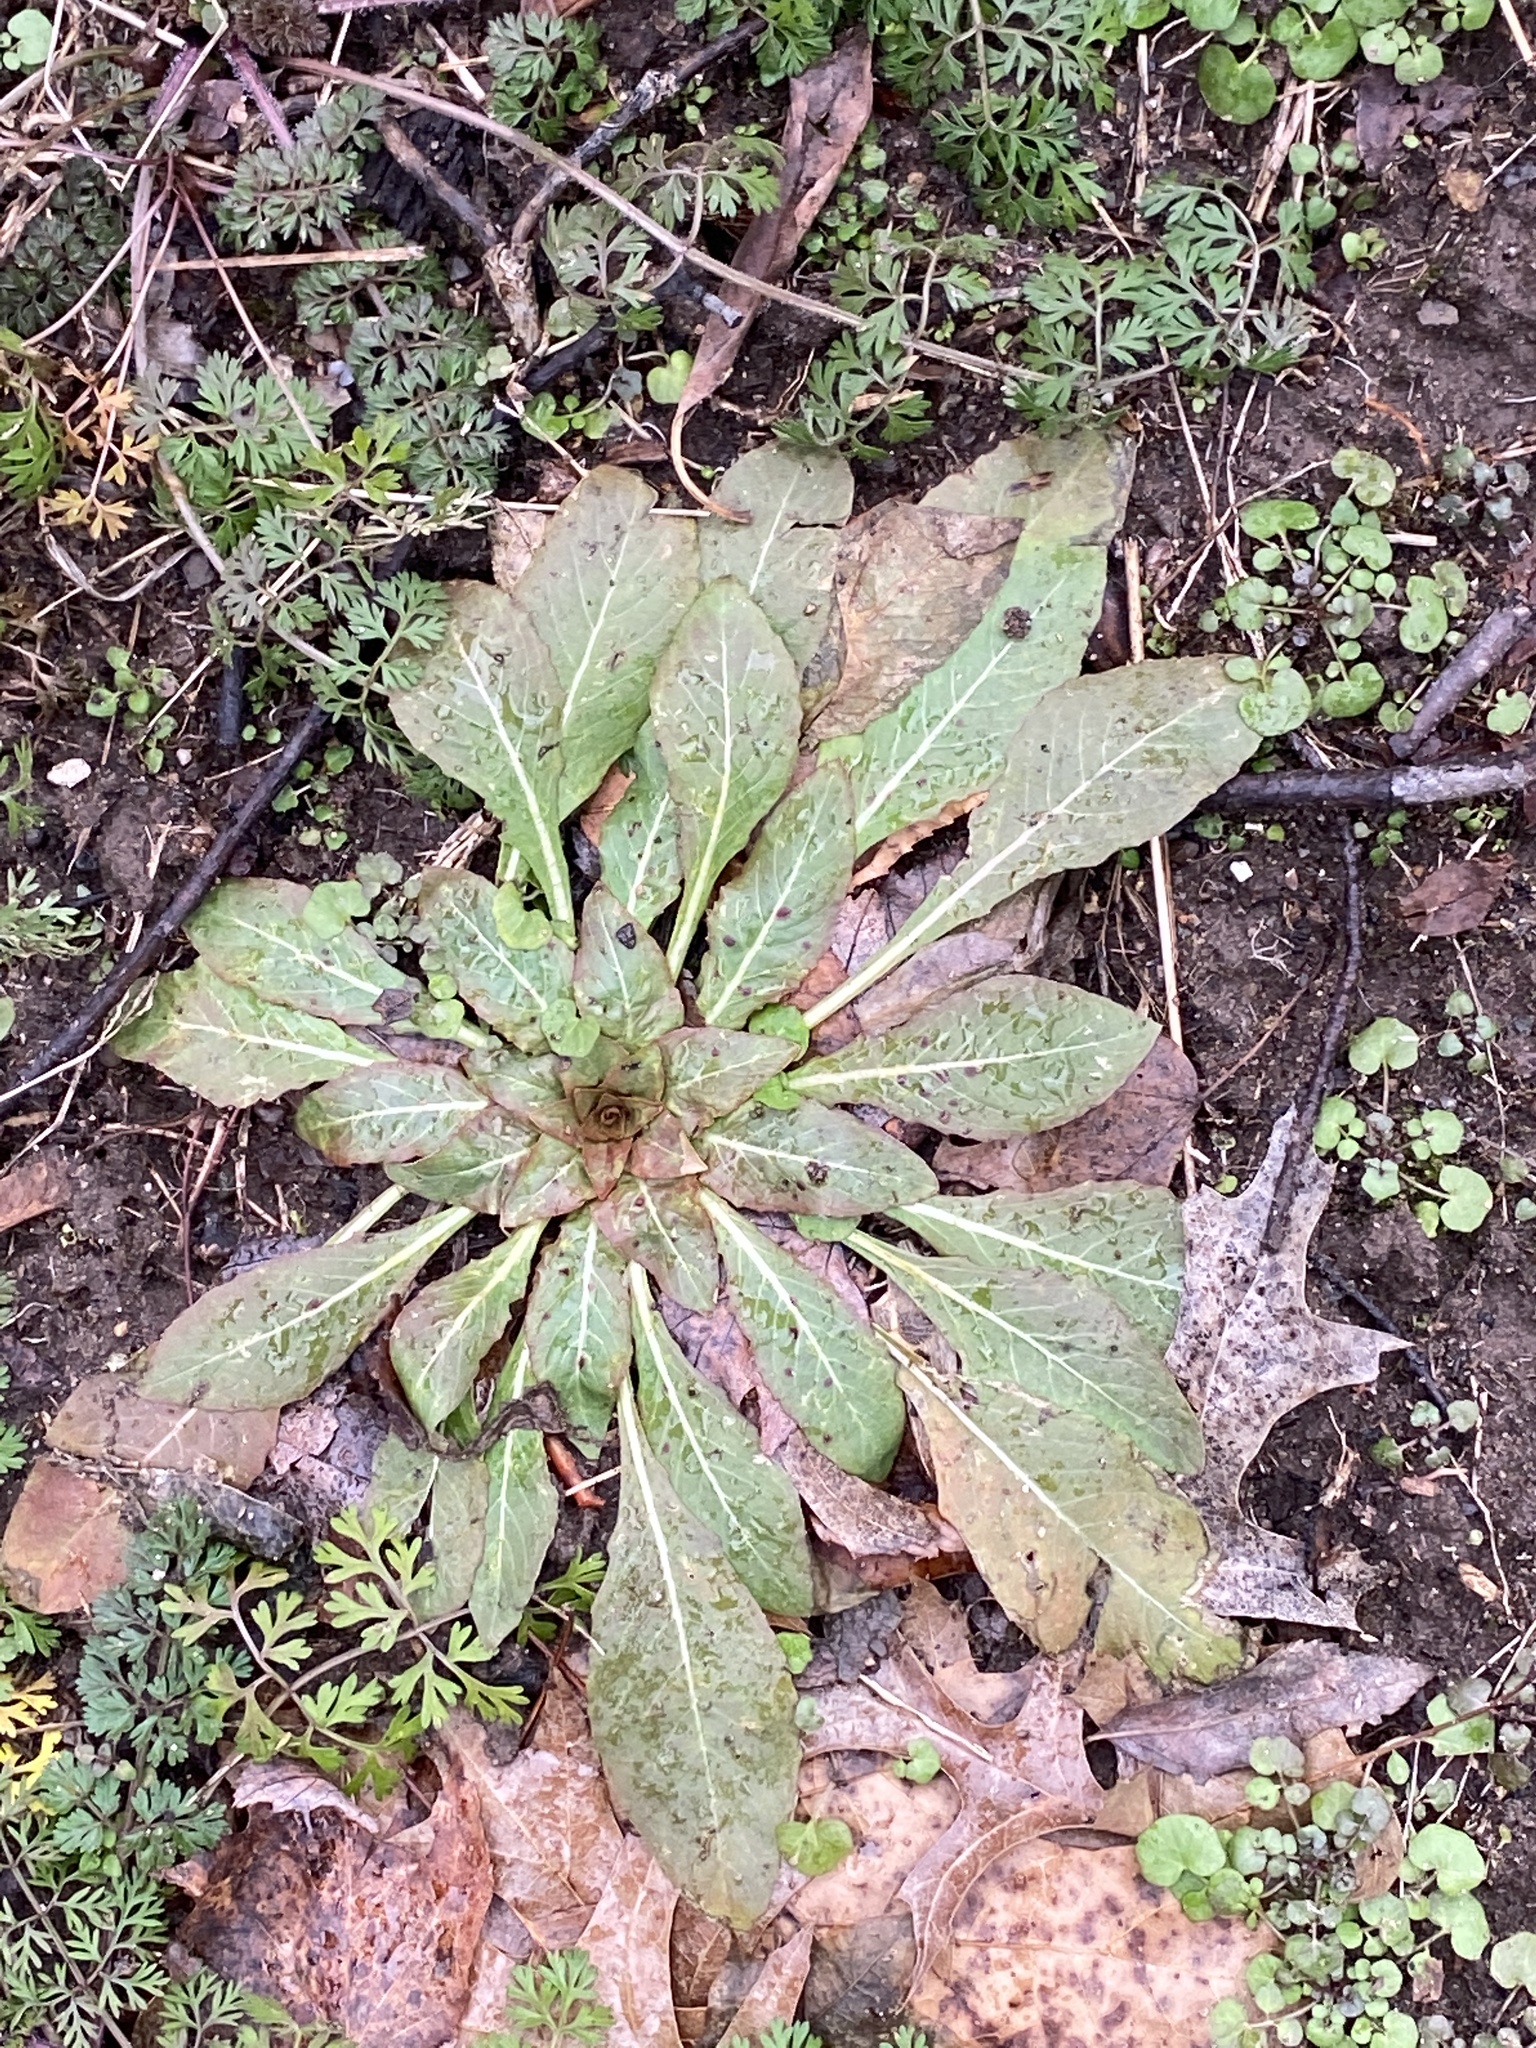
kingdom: Plantae
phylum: Tracheophyta
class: Magnoliopsida
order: Myrtales
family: Onagraceae
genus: Oenothera
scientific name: Oenothera biennis
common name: Common evening-primrose
